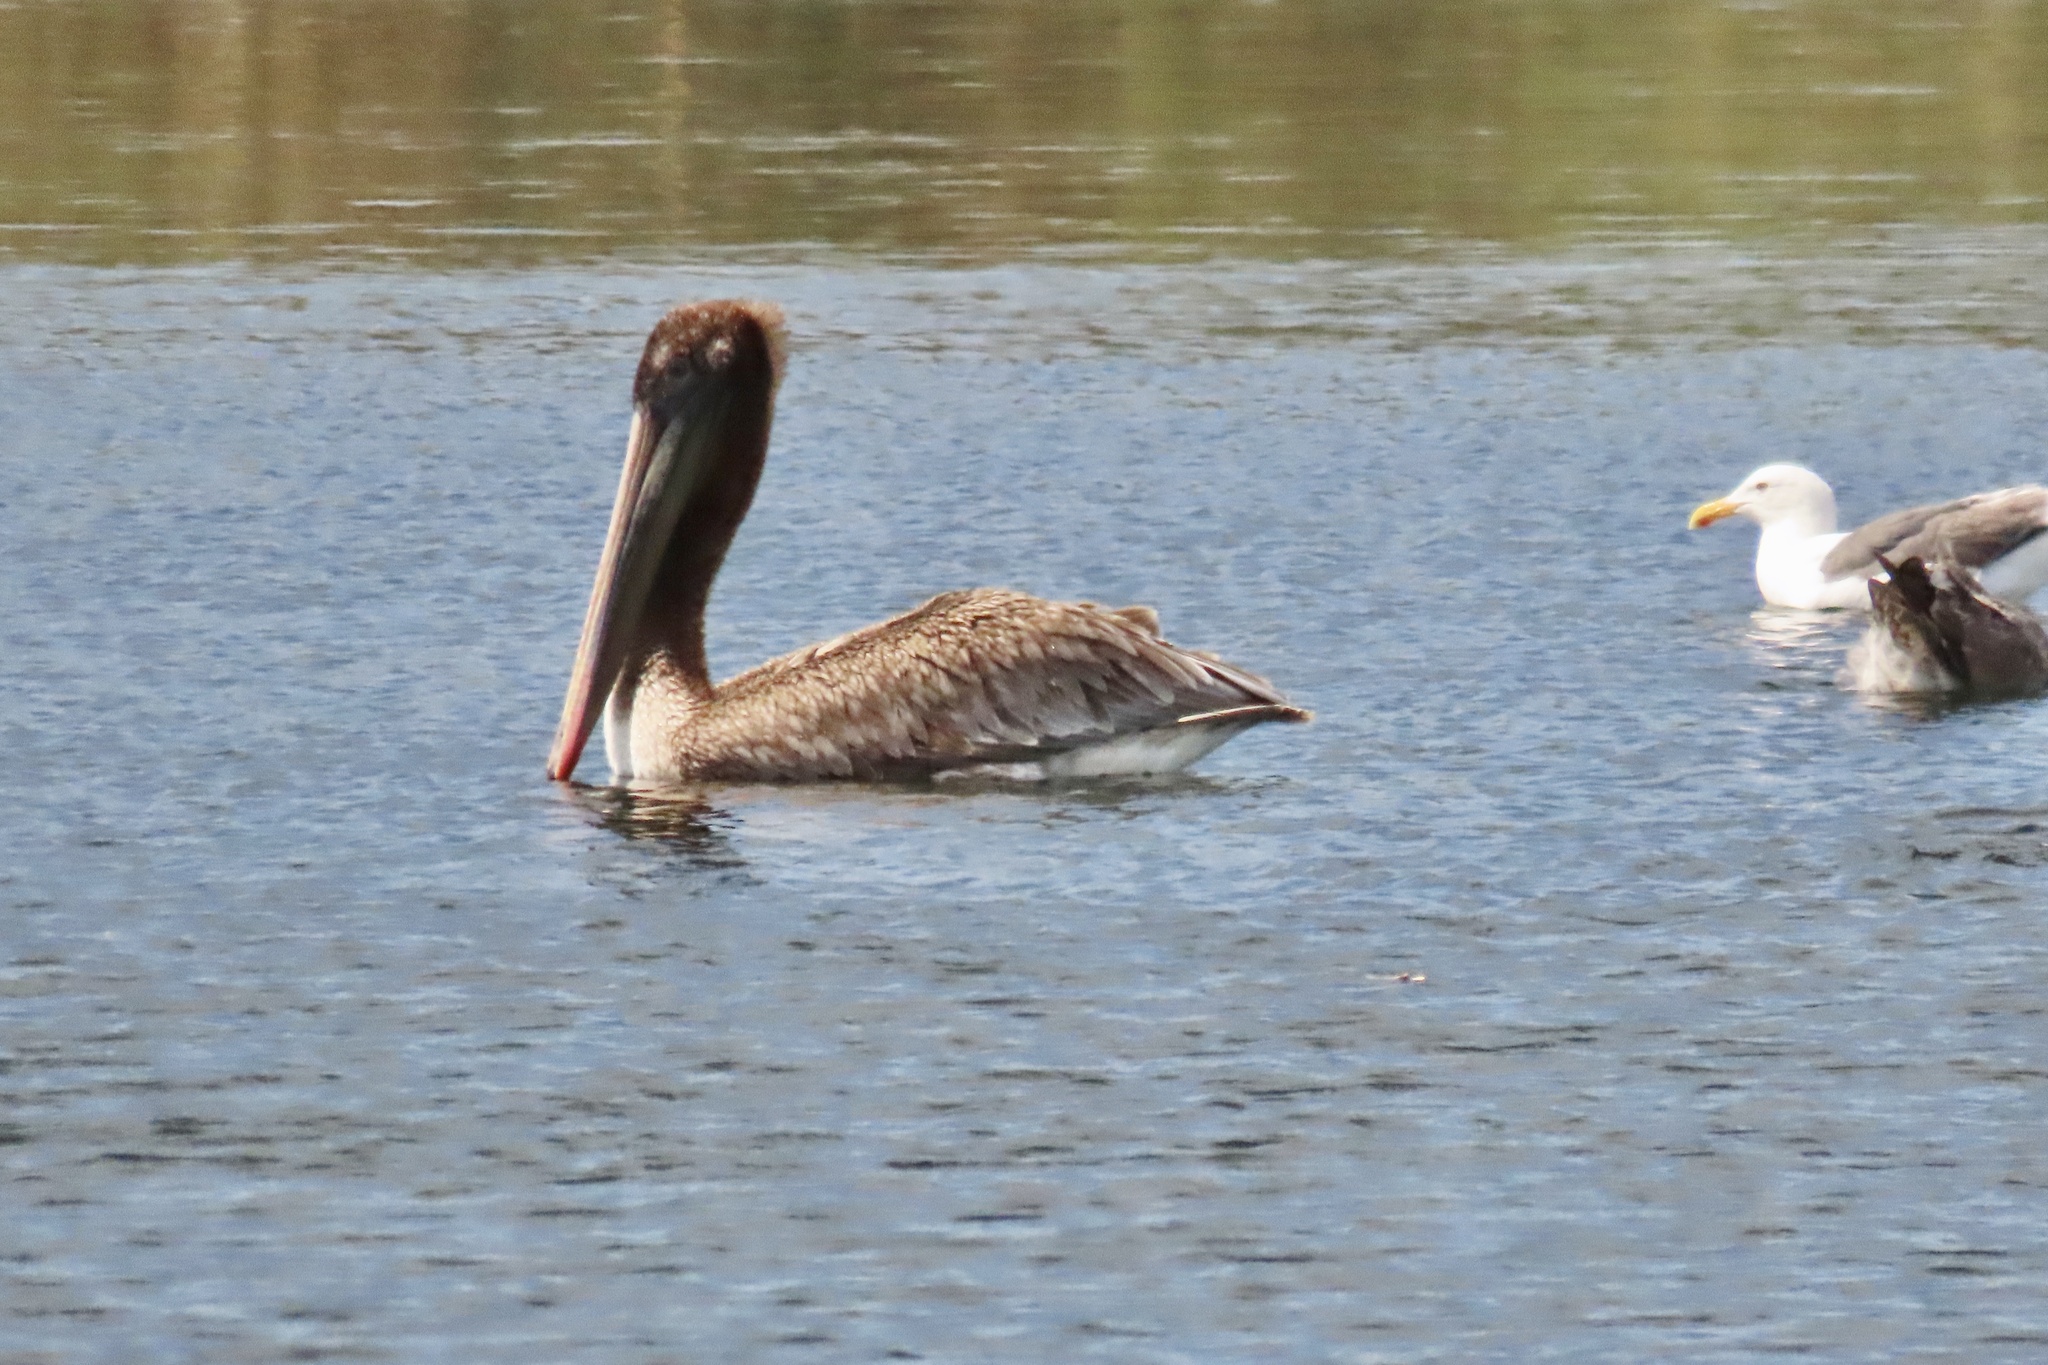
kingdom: Animalia
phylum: Chordata
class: Aves
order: Pelecaniformes
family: Pelecanidae
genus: Pelecanus
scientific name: Pelecanus occidentalis
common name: Brown pelican
